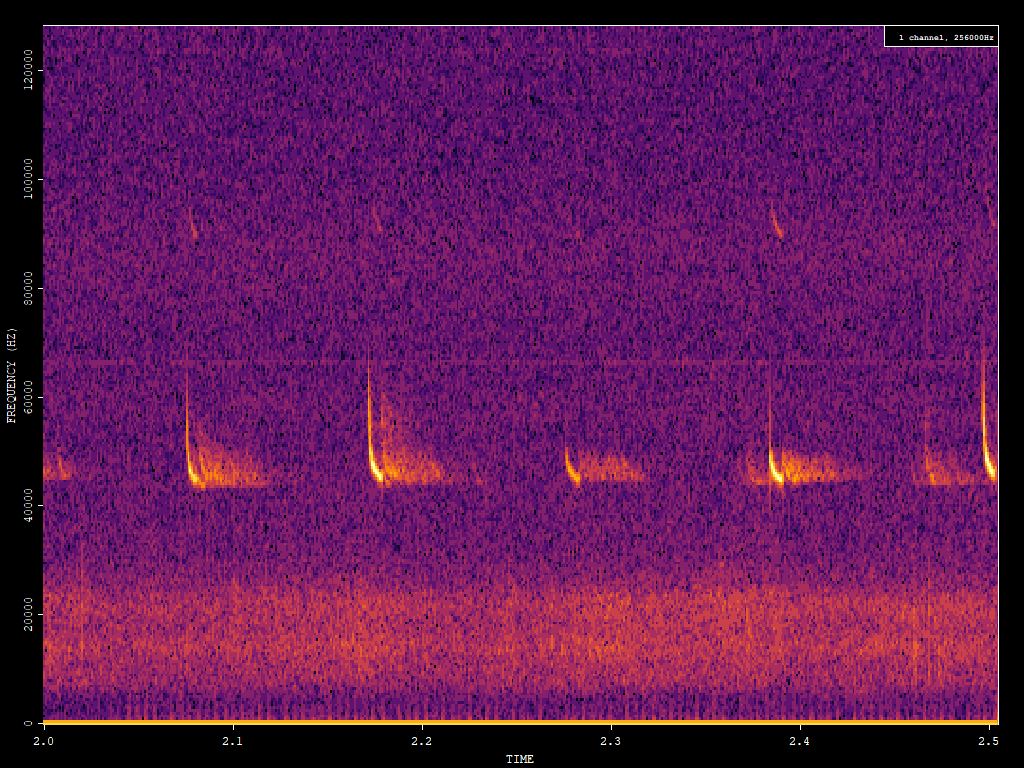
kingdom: Animalia
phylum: Chordata
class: Mammalia
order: Chiroptera
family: Vespertilionidae
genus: Pipistrellus
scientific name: Pipistrellus pipistrellus
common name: Common pipistrelle
